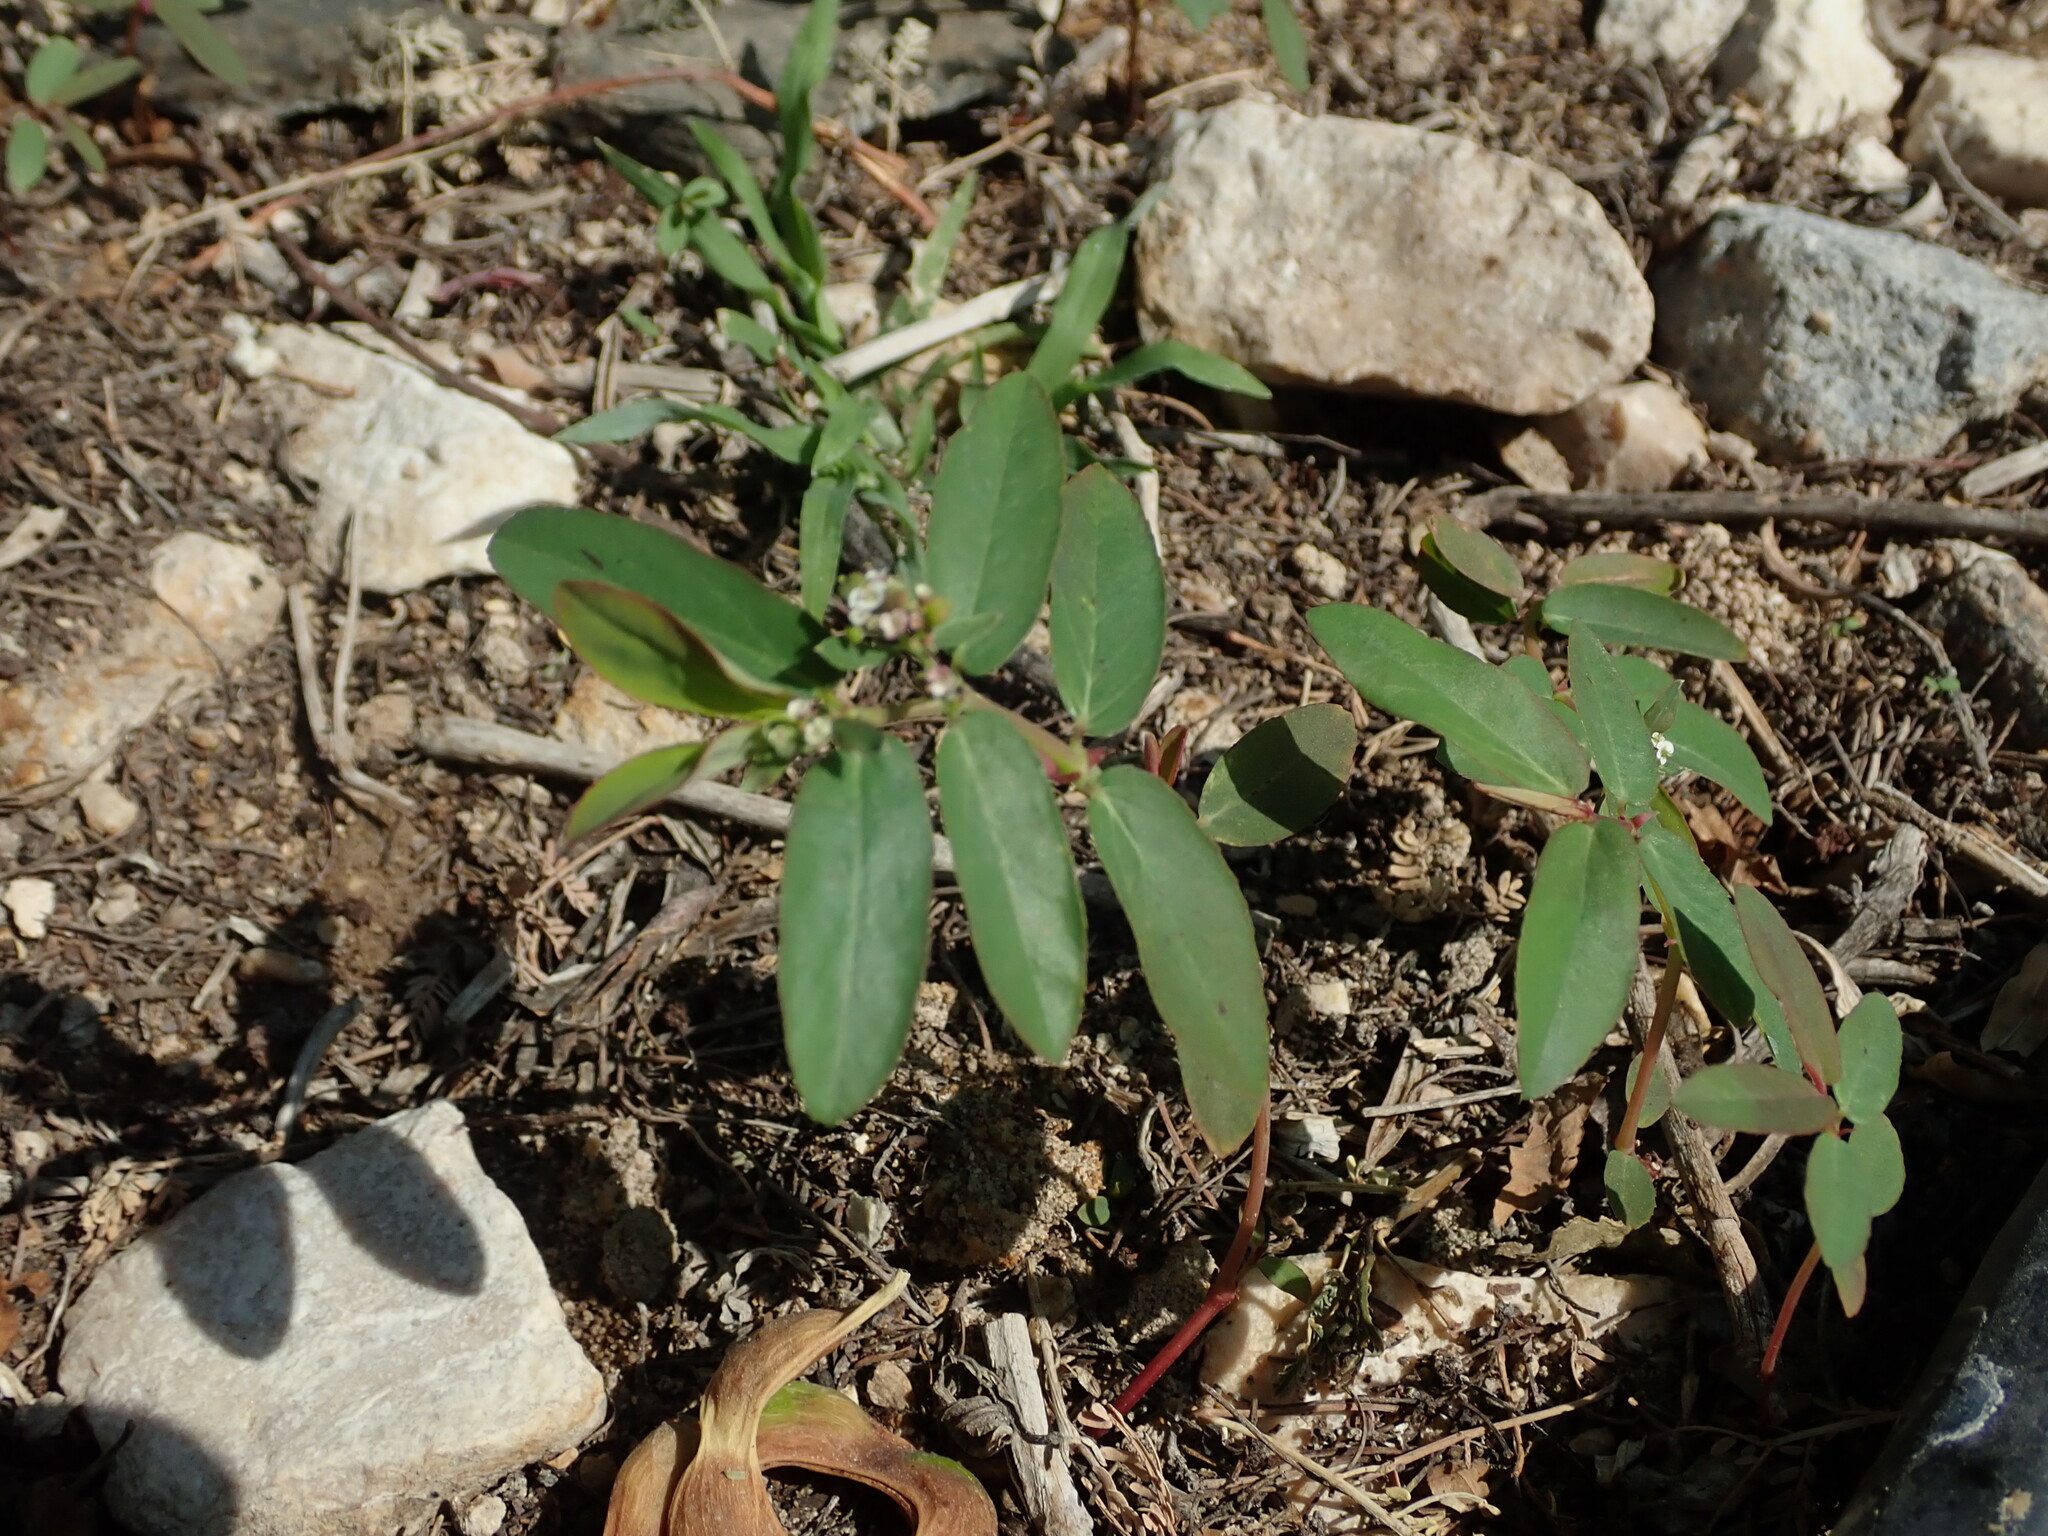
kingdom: Plantae
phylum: Tracheophyta
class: Magnoliopsida
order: Malpighiales
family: Euphorbiaceae
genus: Euphorbia
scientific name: Euphorbia hypericifolia
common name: Graceful sandmat
